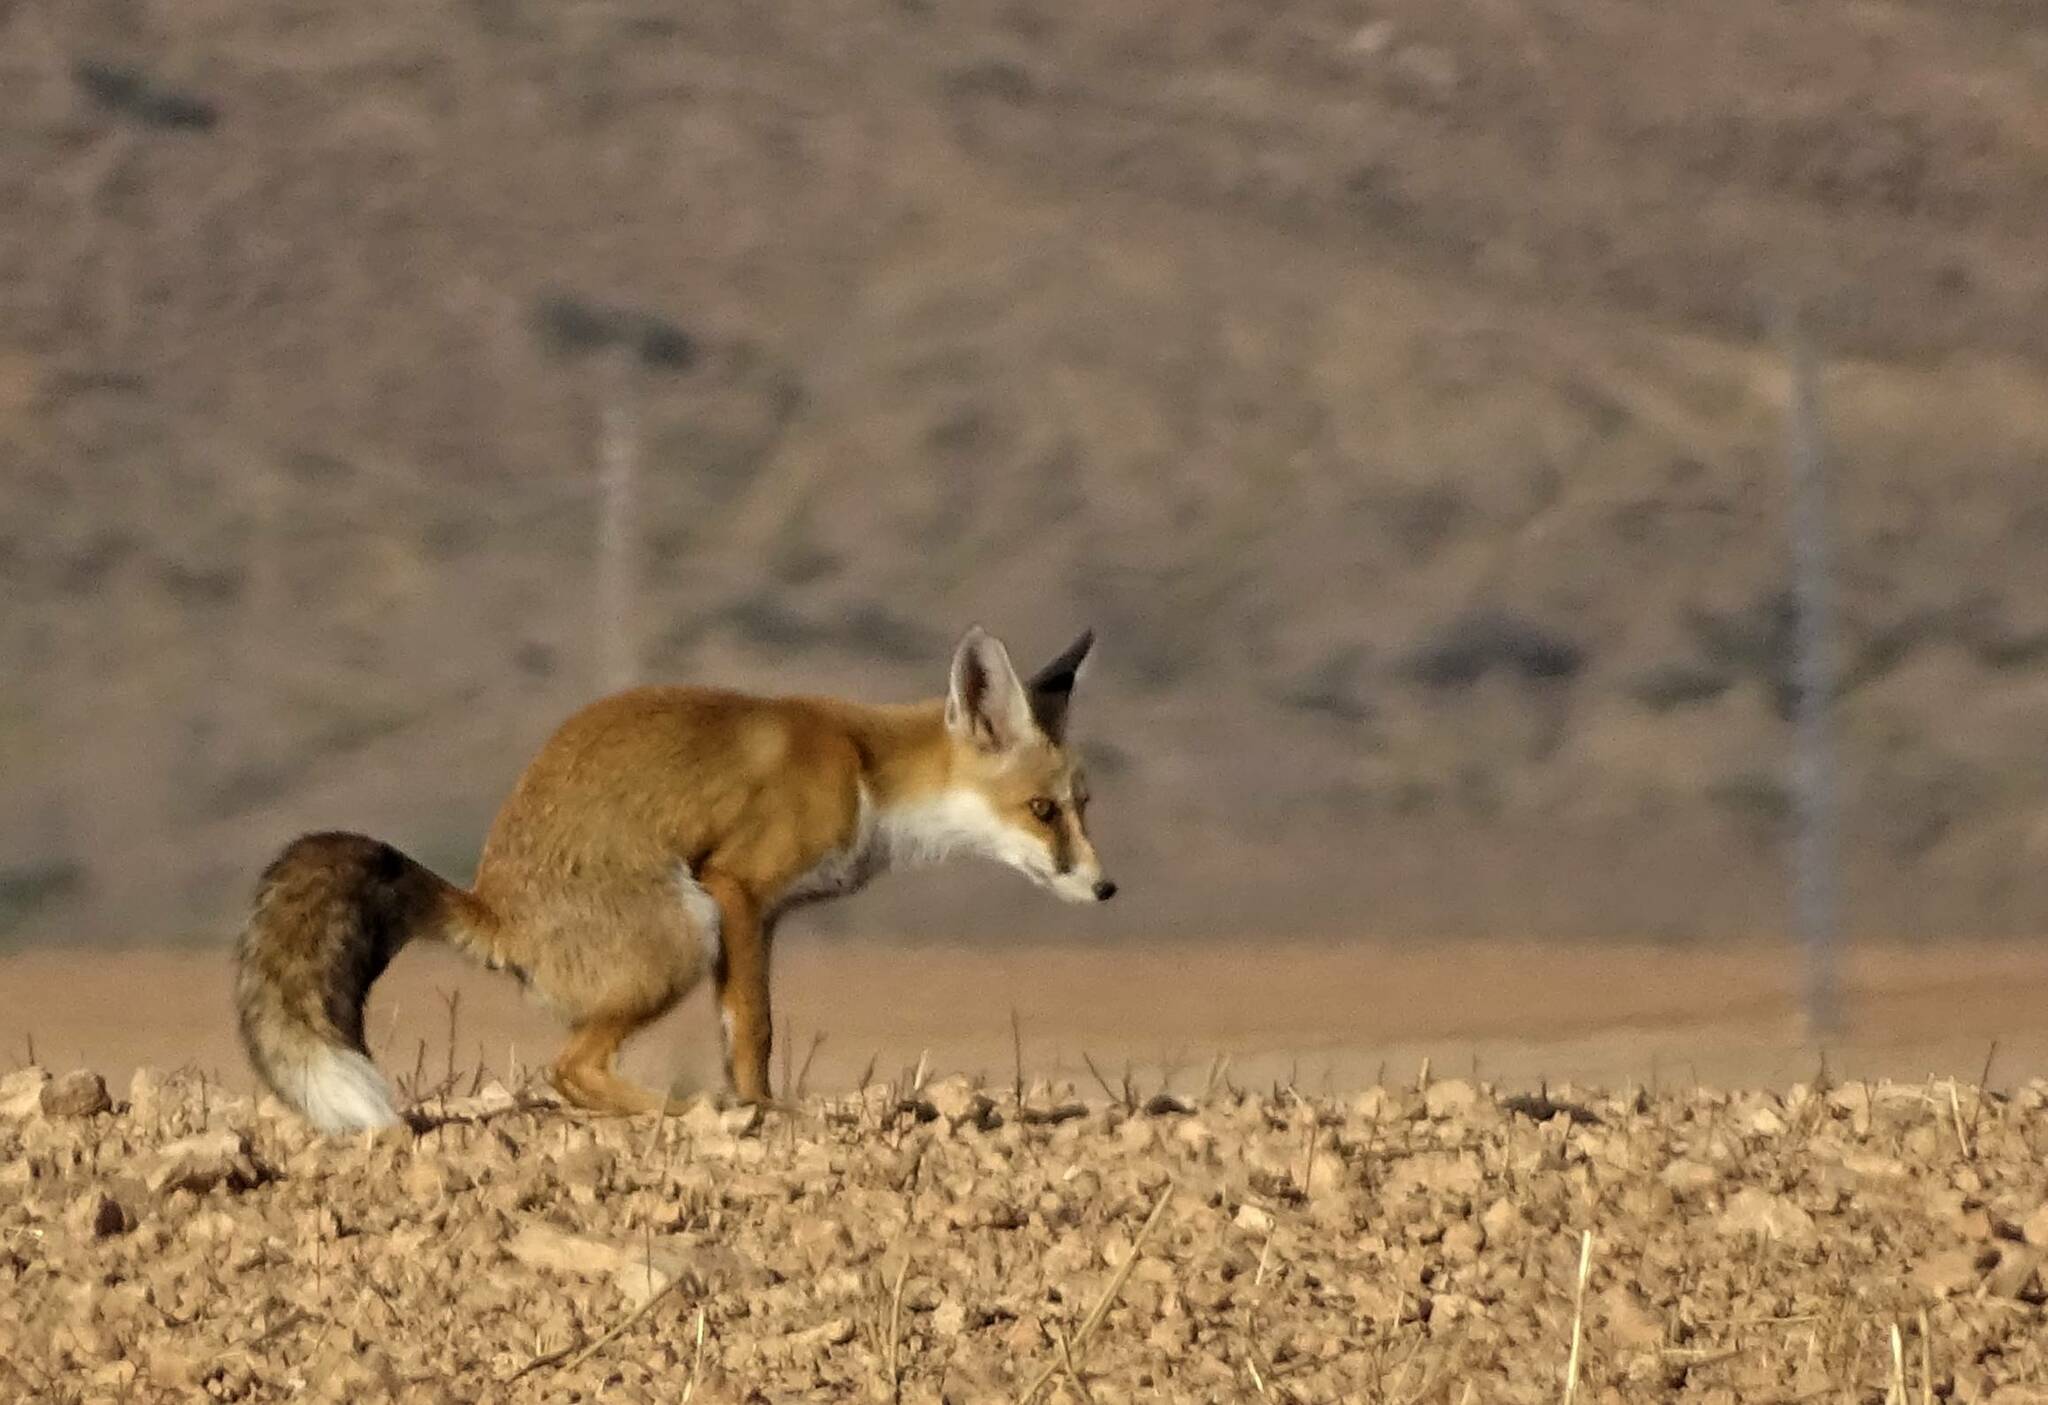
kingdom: Animalia
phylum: Chordata
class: Mammalia
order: Carnivora
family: Canidae
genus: Vulpes
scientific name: Vulpes vulpes
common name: Red fox
